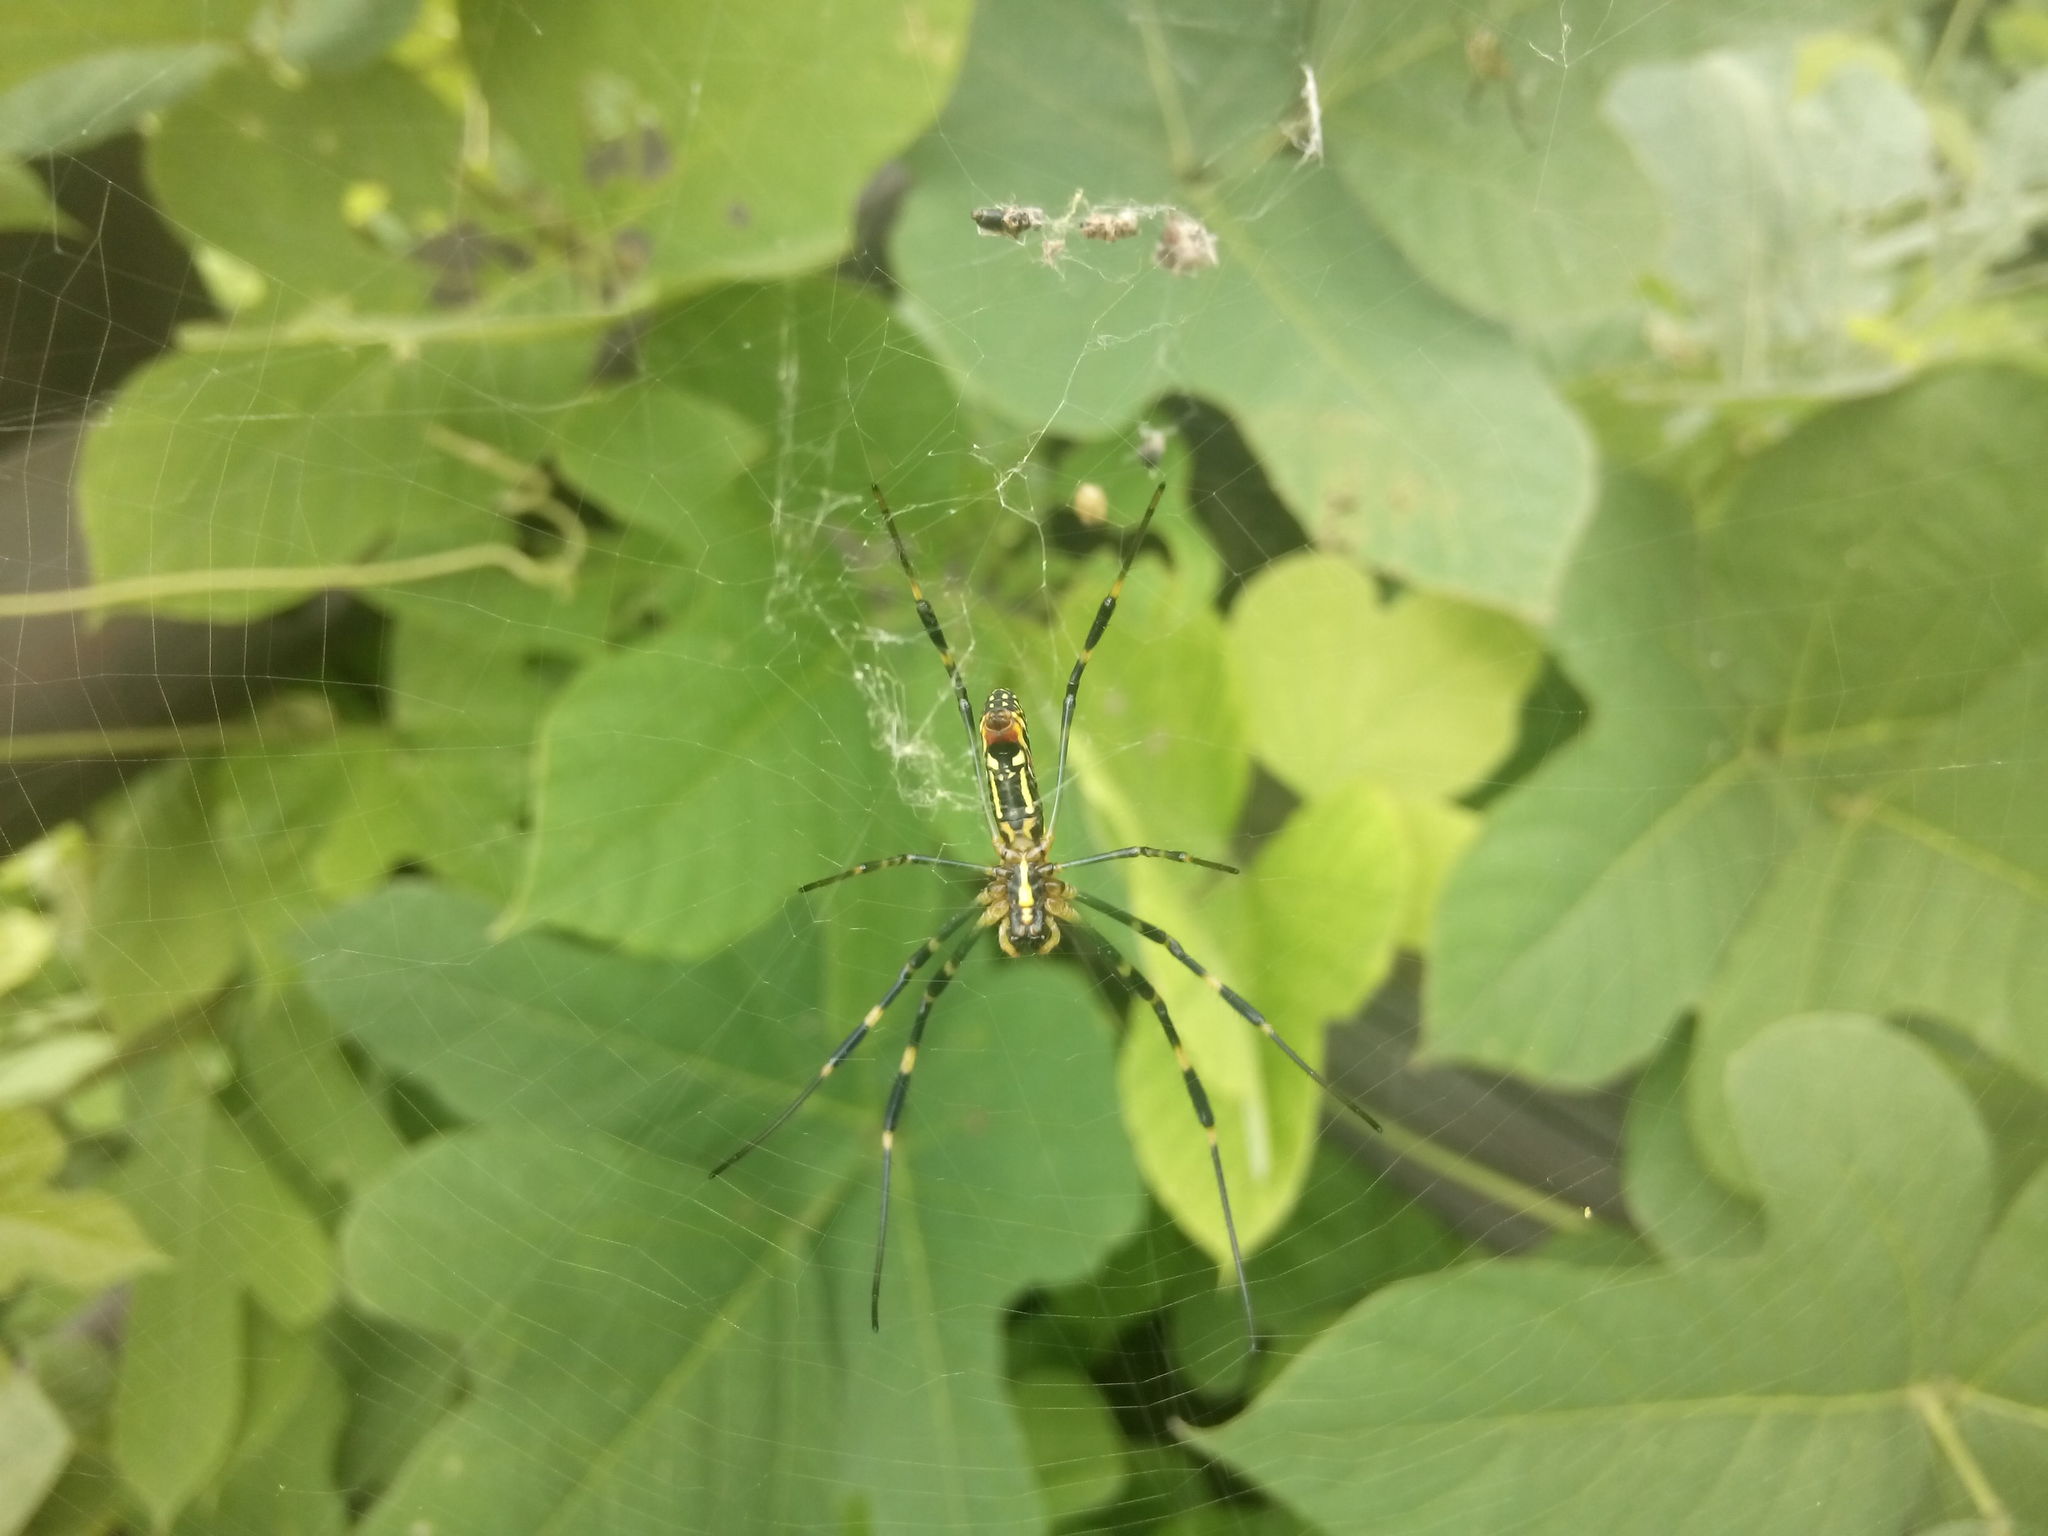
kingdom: Animalia
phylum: Arthropoda
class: Arachnida
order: Araneae
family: Araneidae
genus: Trichonephila
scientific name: Trichonephila clavata
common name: Jorō spider
